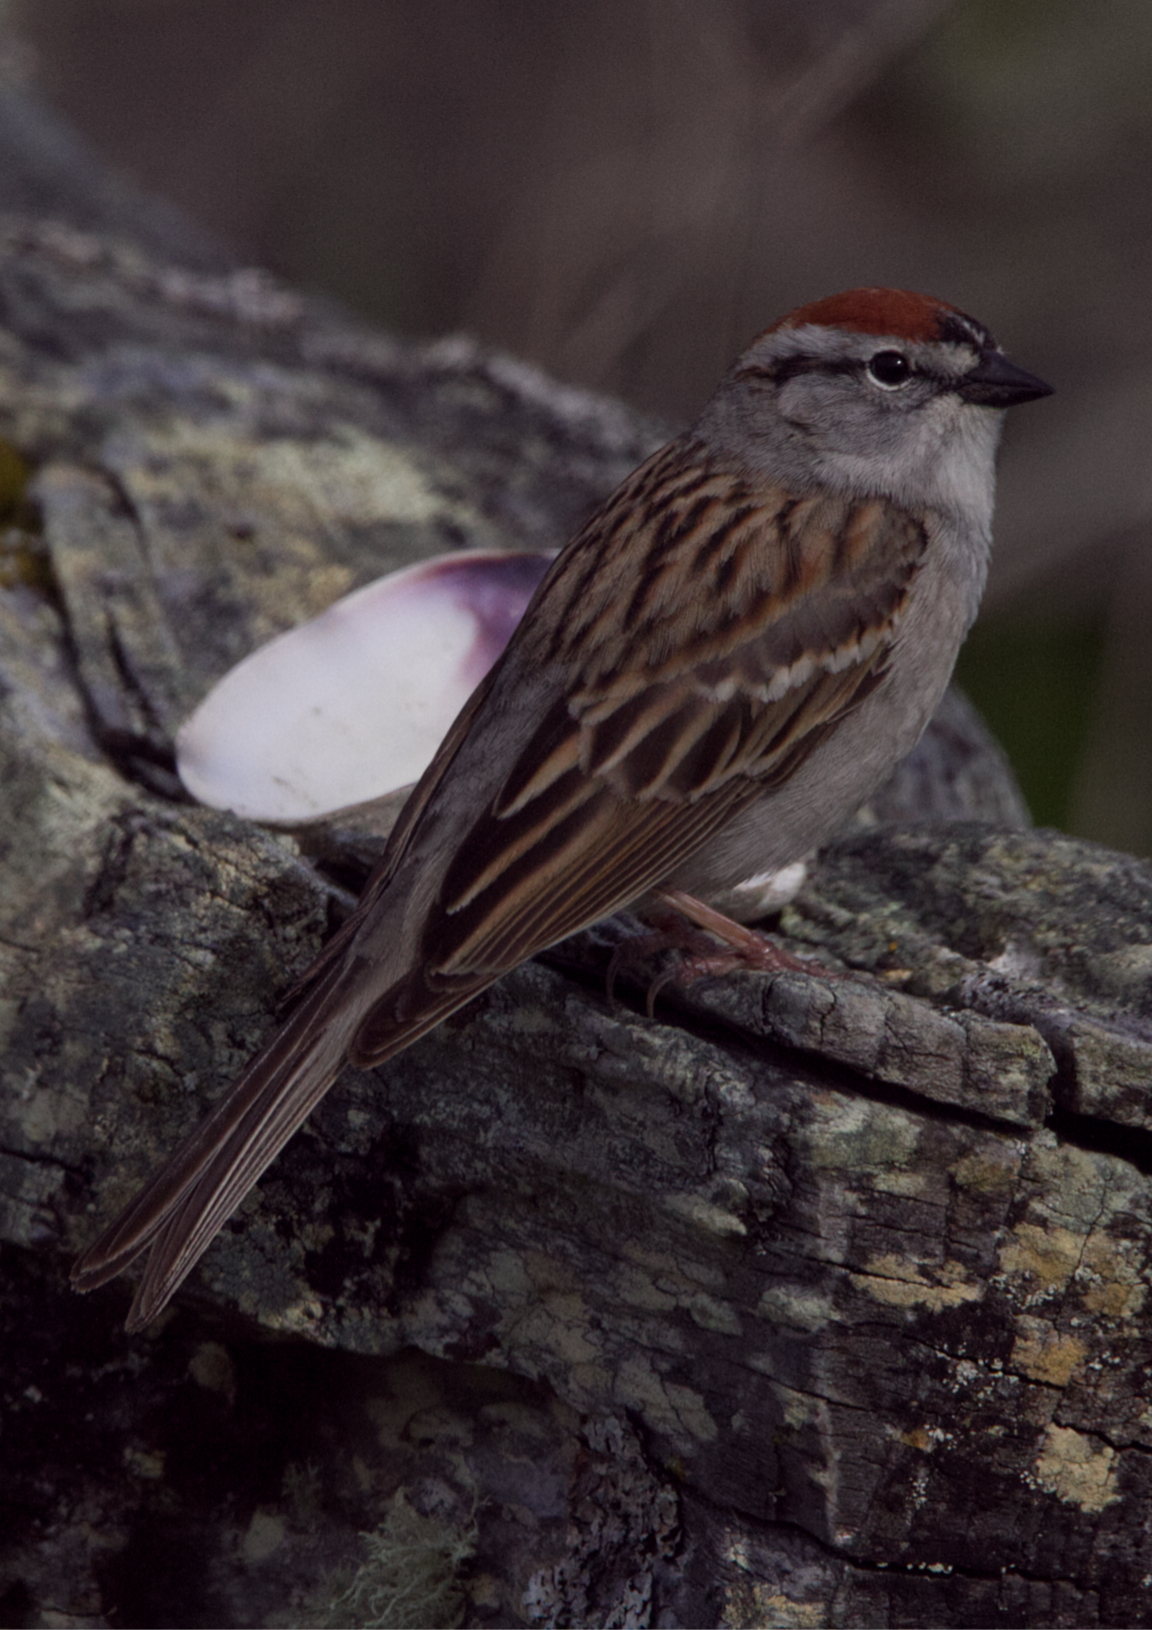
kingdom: Animalia
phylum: Chordata
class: Aves
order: Passeriformes
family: Passerellidae
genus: Spizella
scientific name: Spizella passerina
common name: Chipping sparrow
